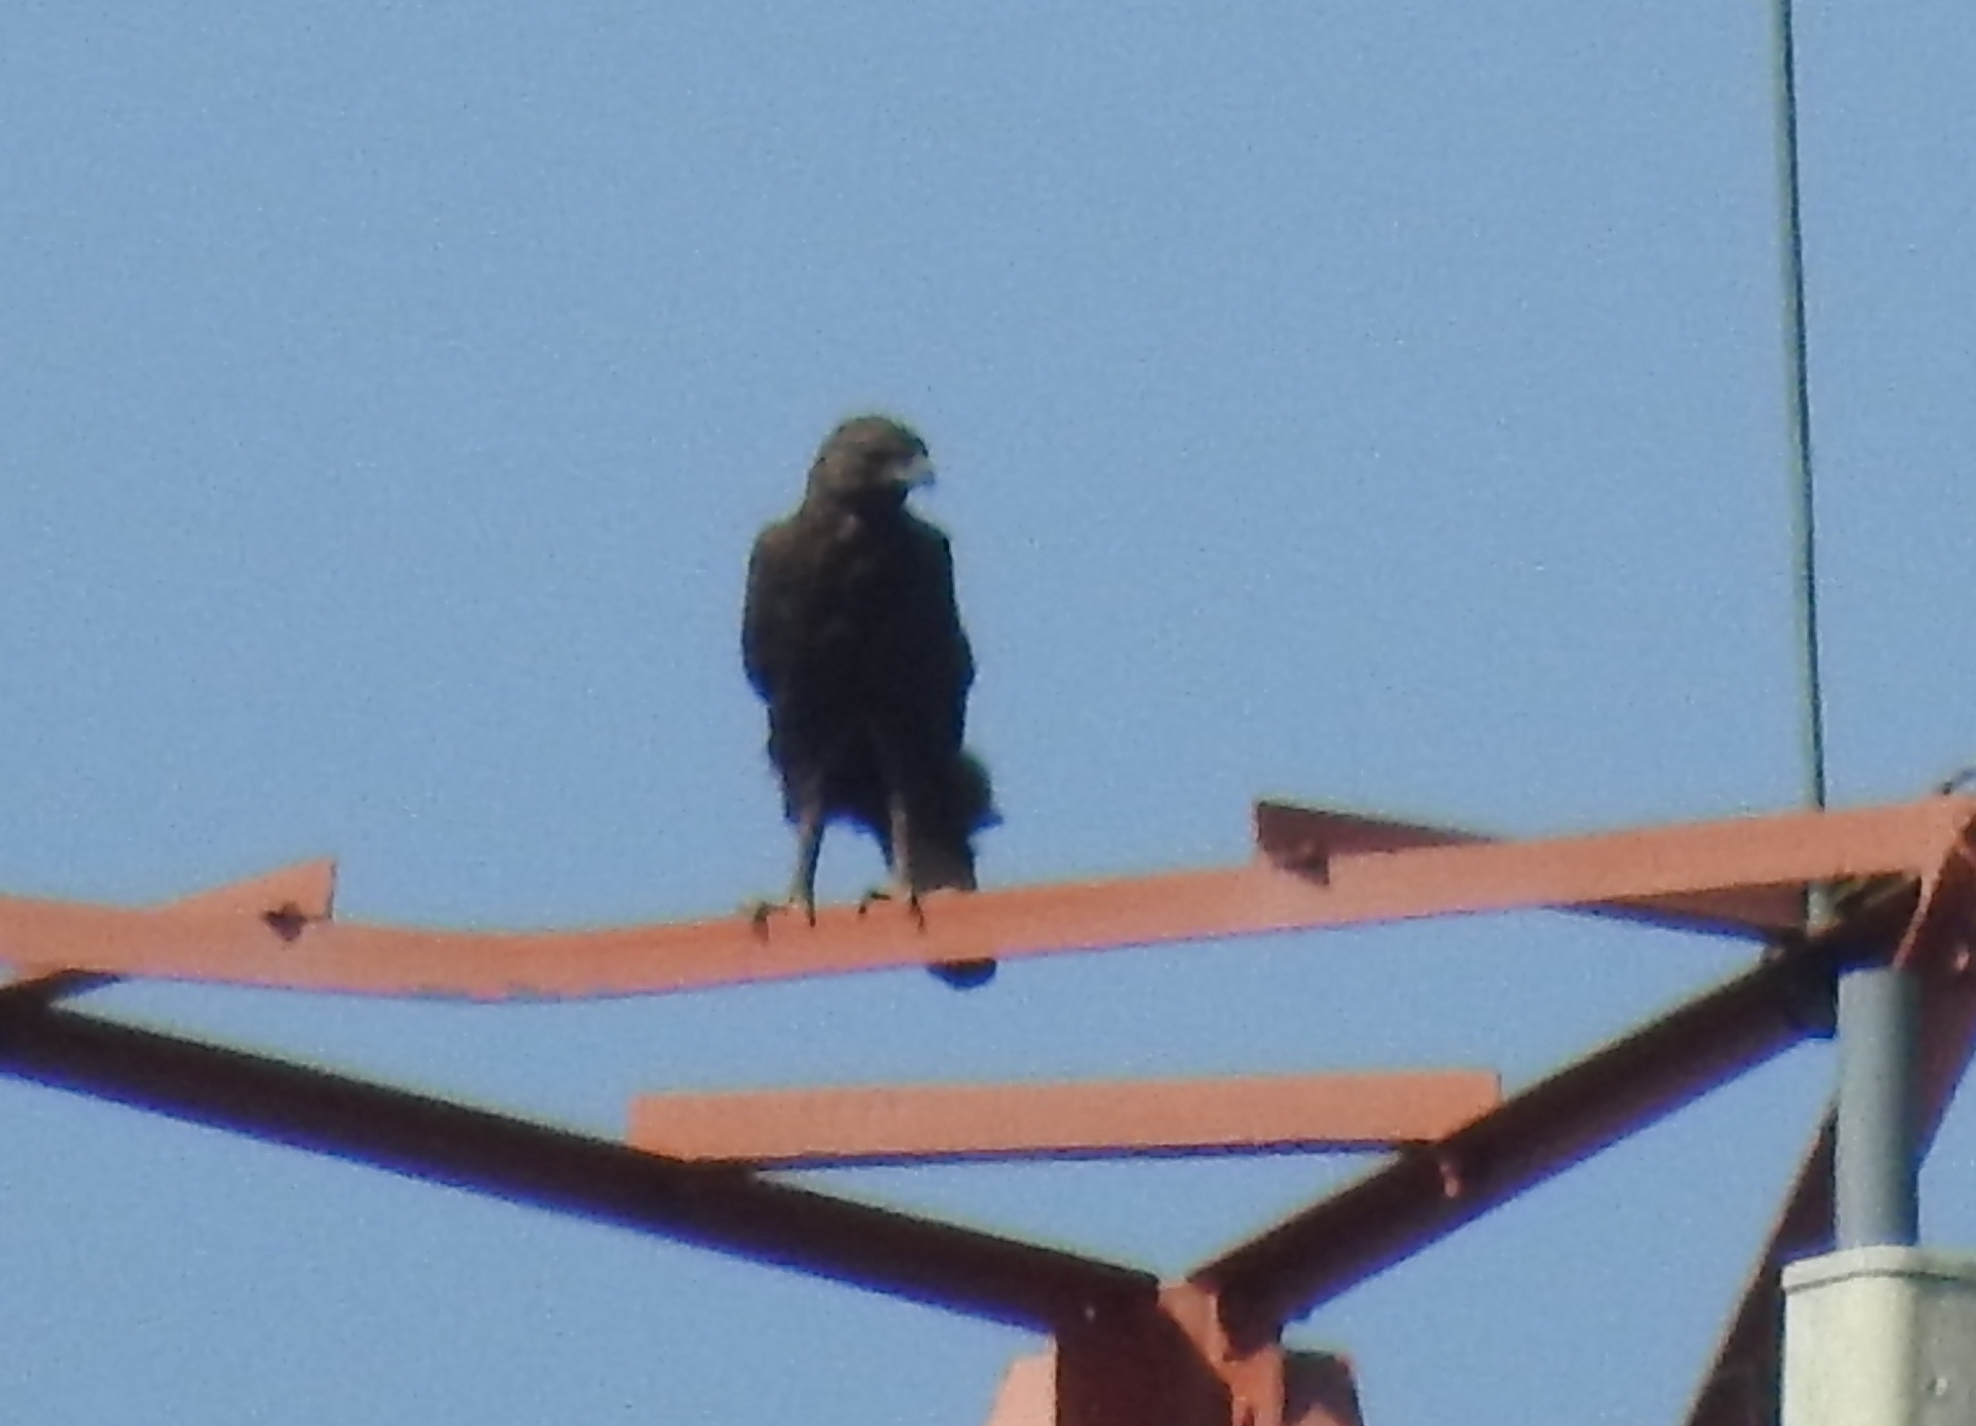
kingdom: Animalia
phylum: Chordata
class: Aves
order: Accipitriformes
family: Accipitridae
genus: Nisaetus
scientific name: Nisaetus cirrhatus
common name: Changeable hawk-eagle
